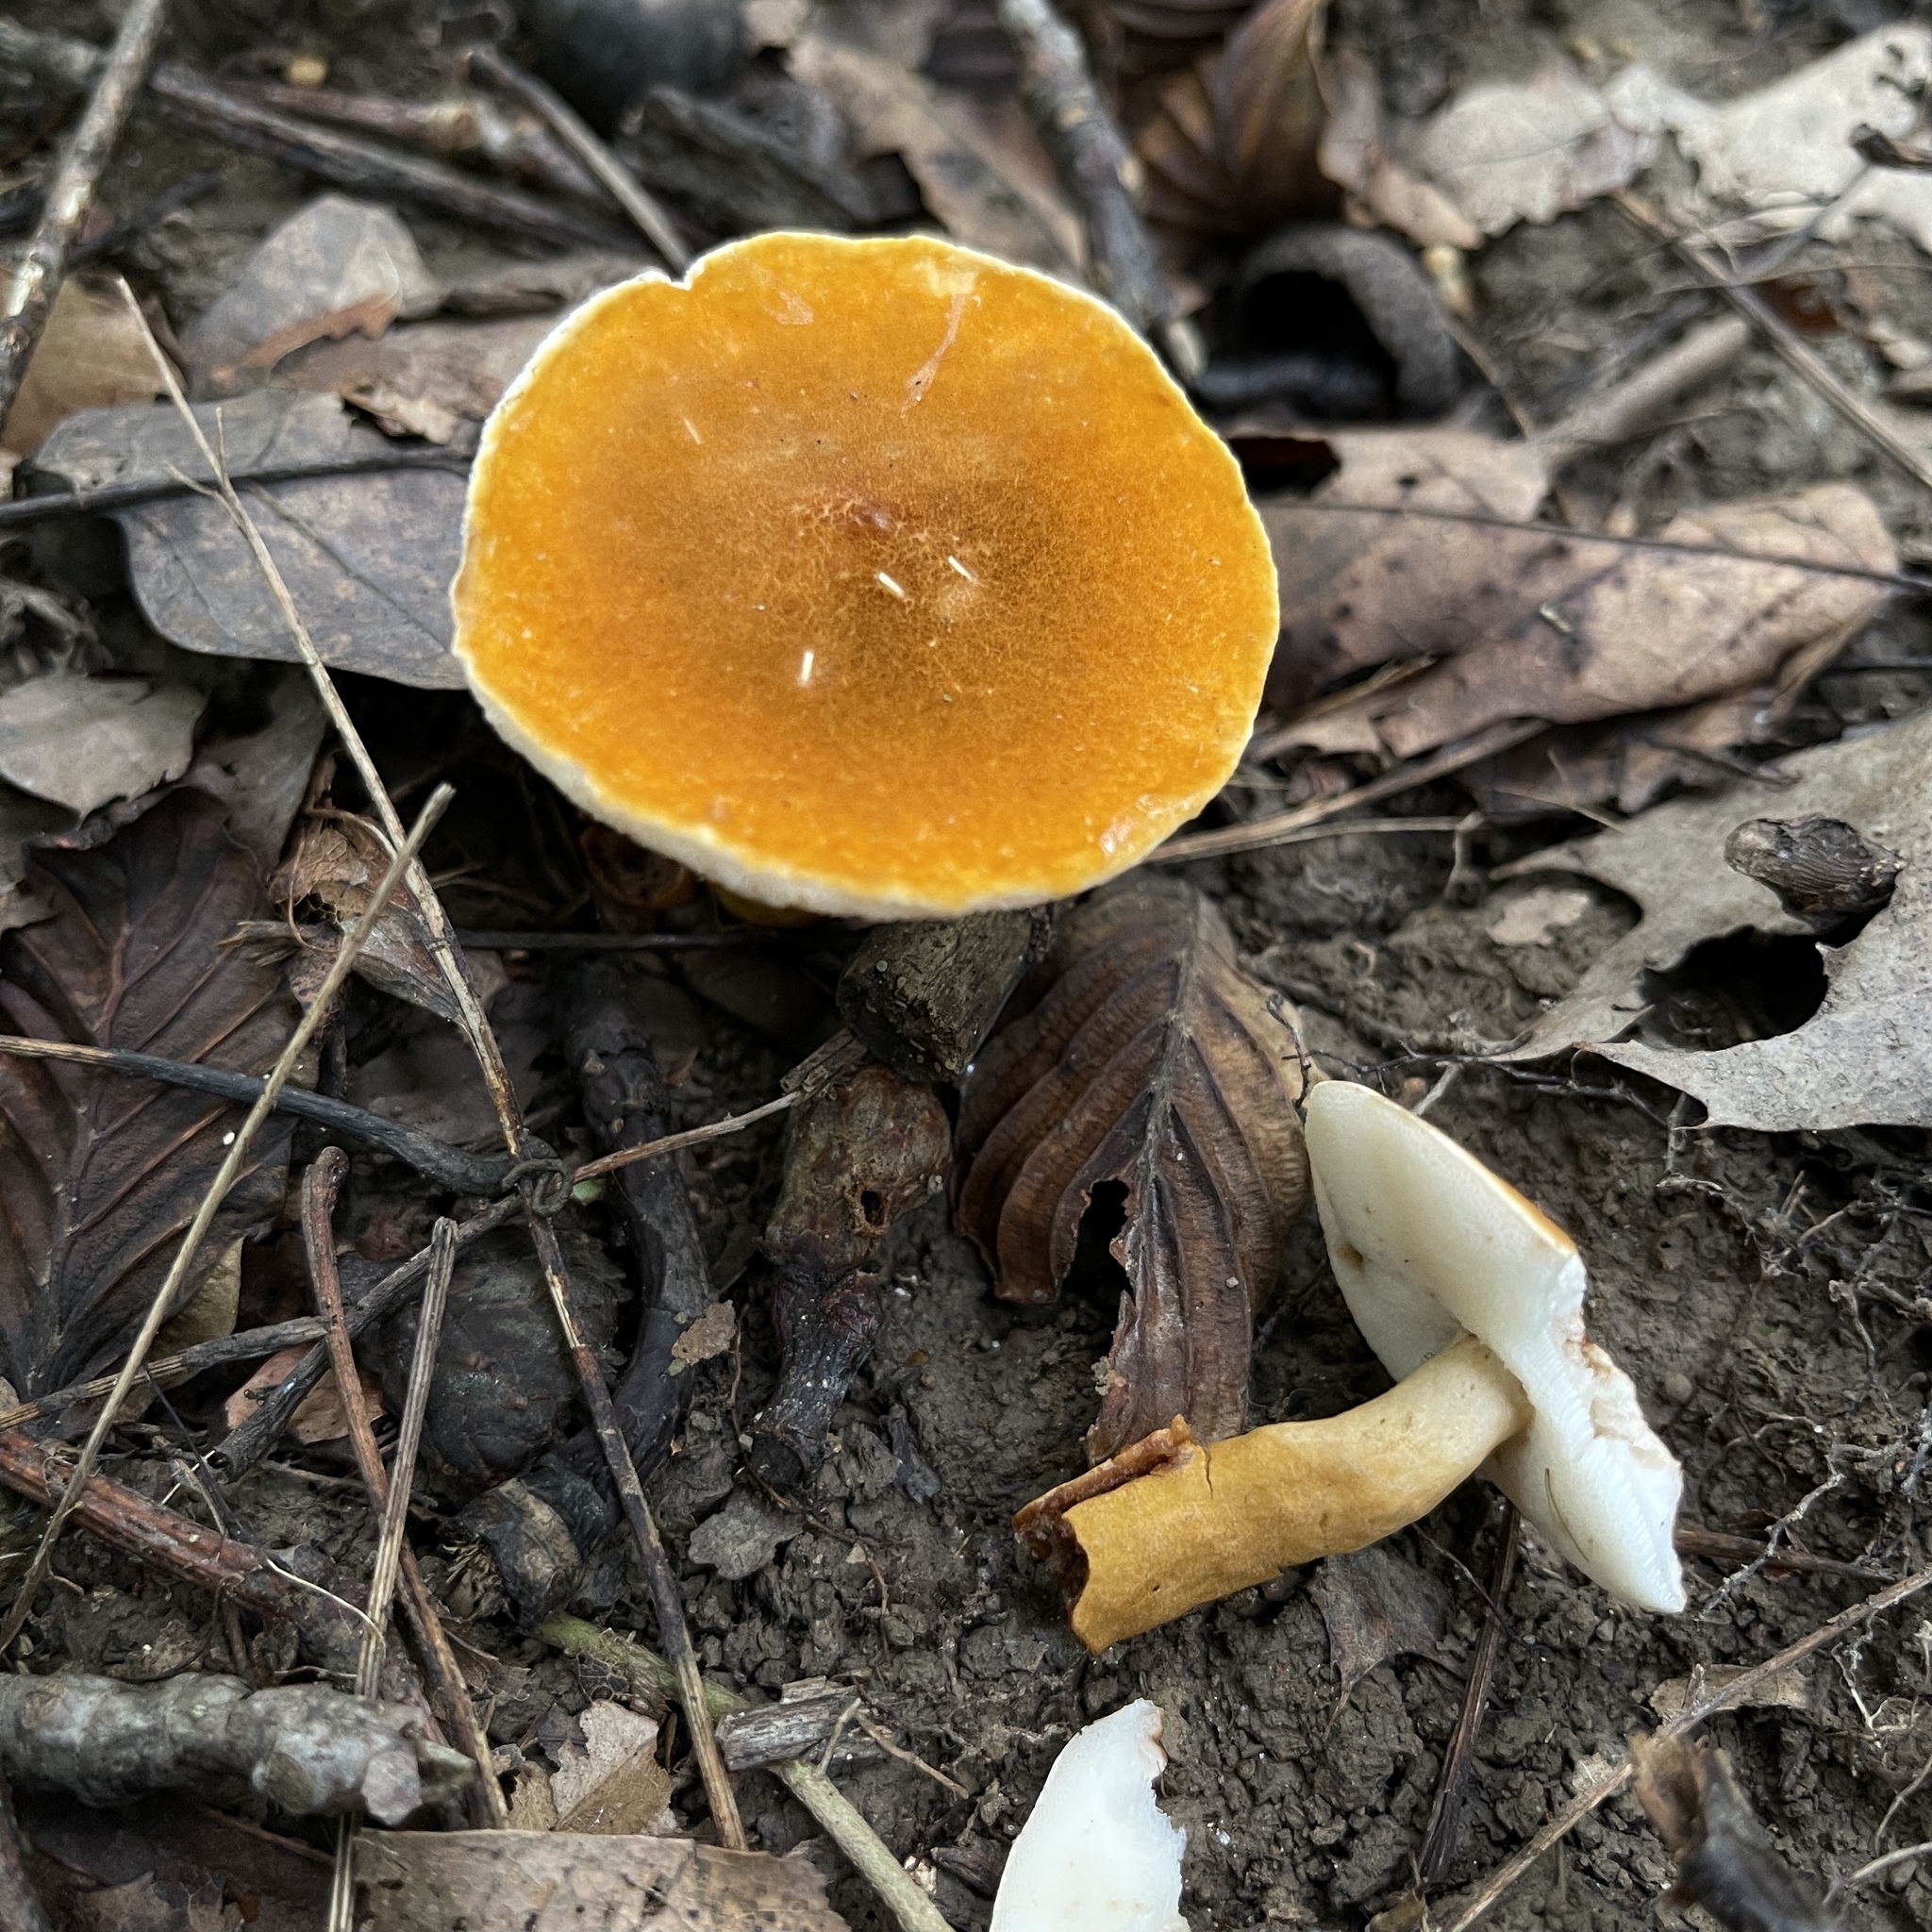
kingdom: Fungi
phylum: Basidiomycota
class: Agaricomycetes
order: Boletales
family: Gyroporaceae
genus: Gyroporus
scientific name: Gyroporus borealis
